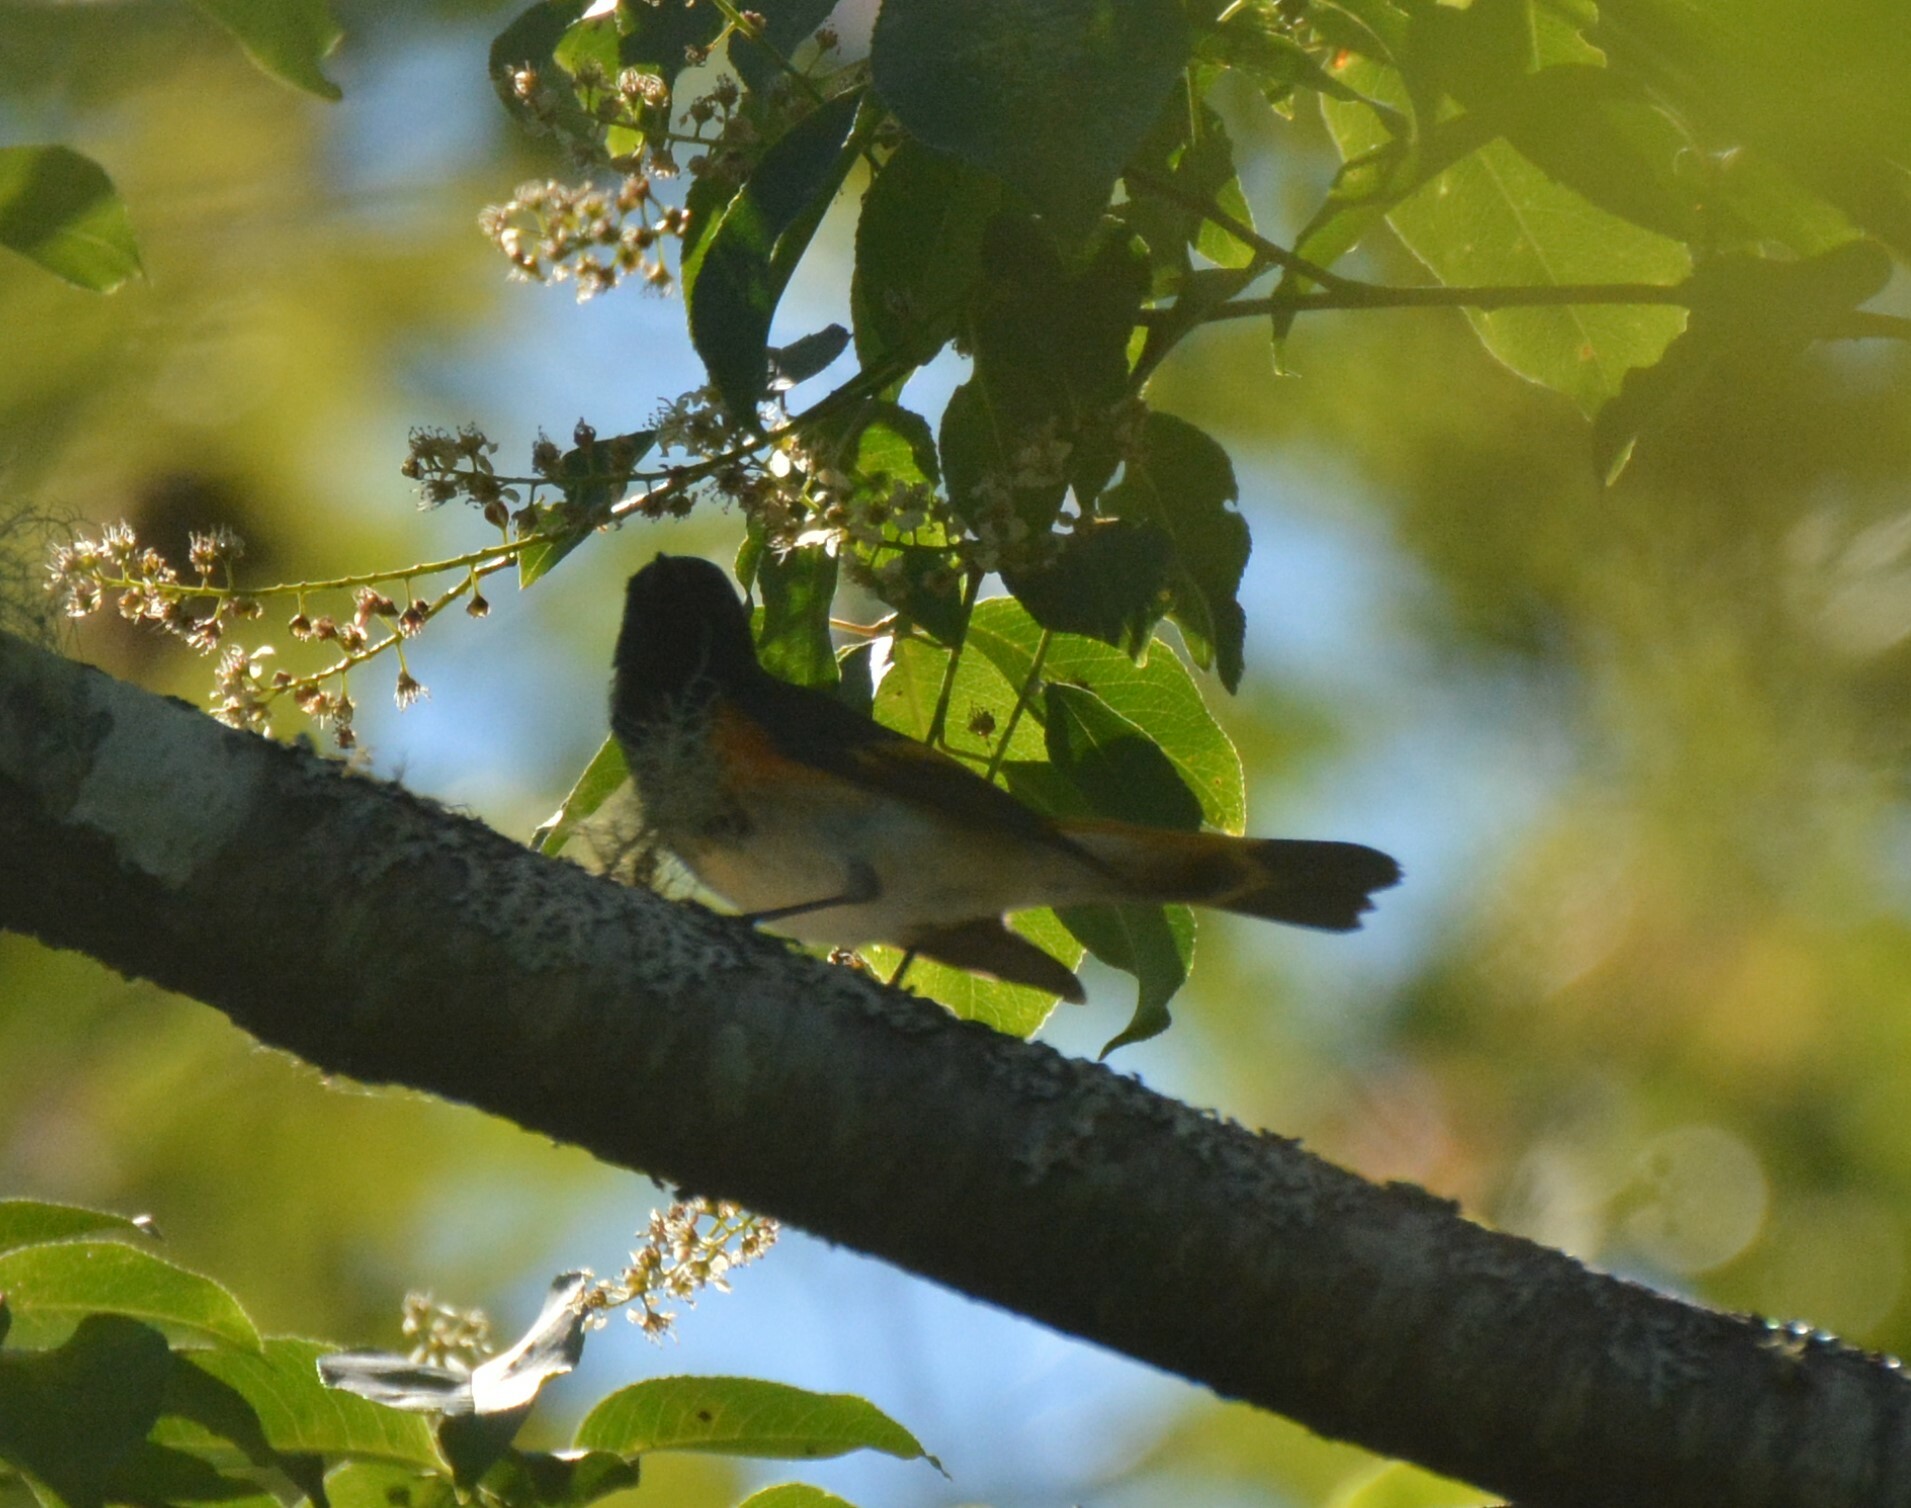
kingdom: Animalia
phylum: Chordata
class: Aves
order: Passeriformes
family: Parulidae
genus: Setophaga
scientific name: Setophaga ruticilla
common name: American redstart
